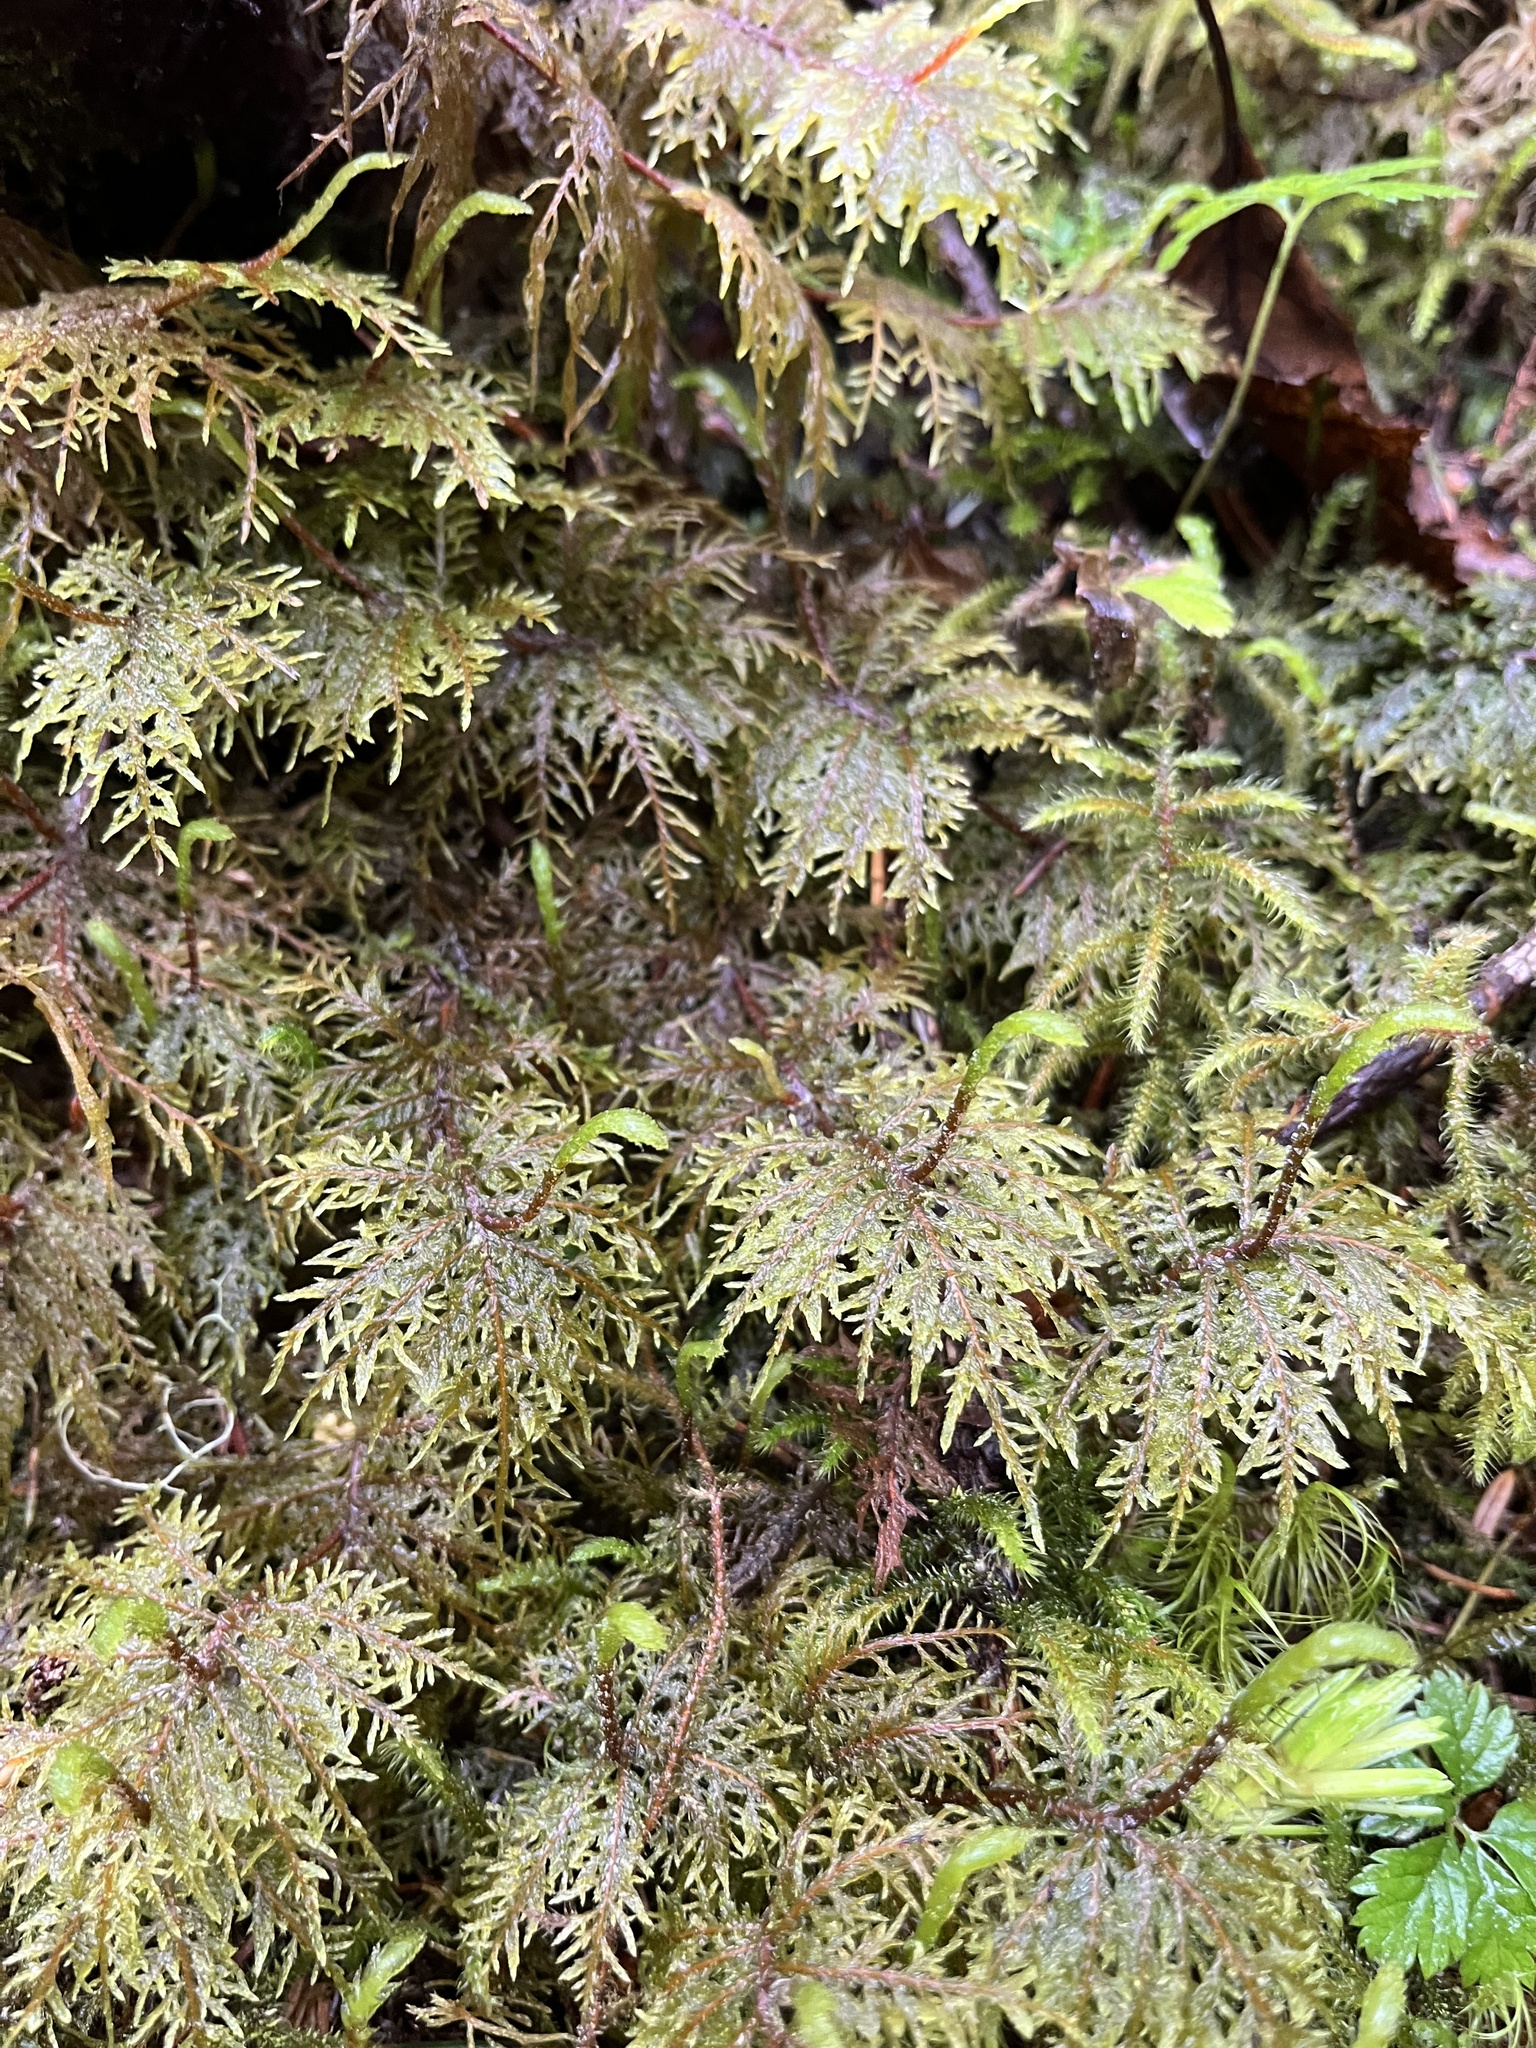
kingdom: Plantae
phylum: Bryophyta
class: Bryopsida
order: Hypnales
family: Hylocomiaceae
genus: Hylocomium
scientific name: Hylocomium splendens
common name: Stairstep moss
